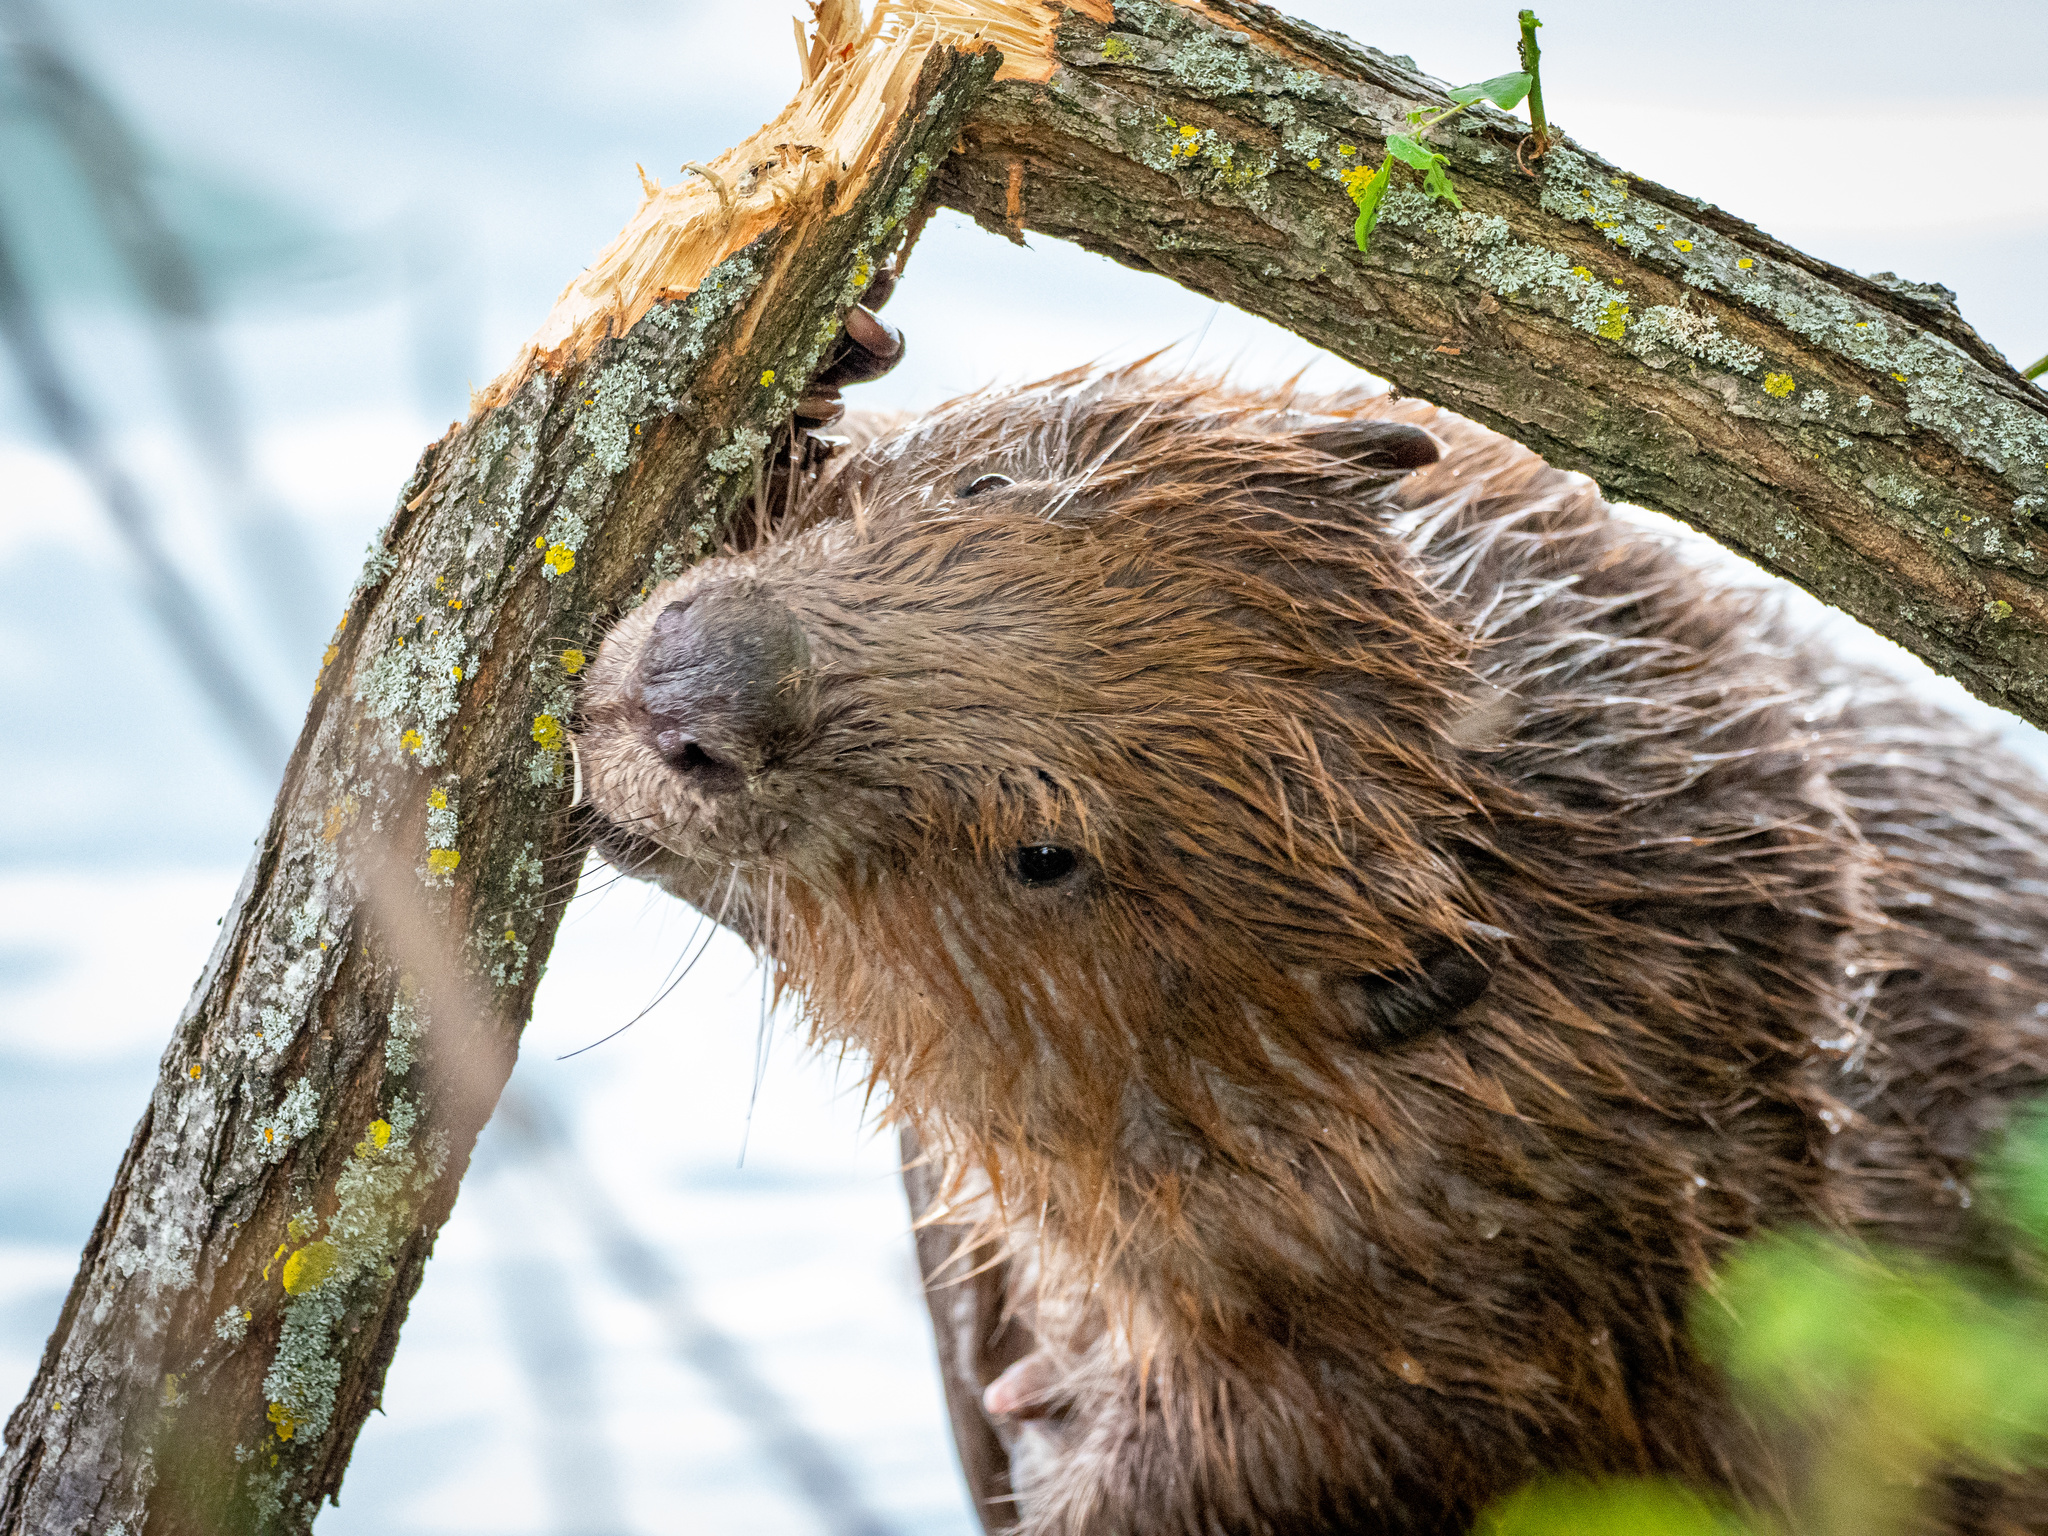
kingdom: Animalia
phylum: Chordata
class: Mammalia
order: Rodentia
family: Castoridae
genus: Castor
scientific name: Castor fiber
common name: Eurasian beaver
